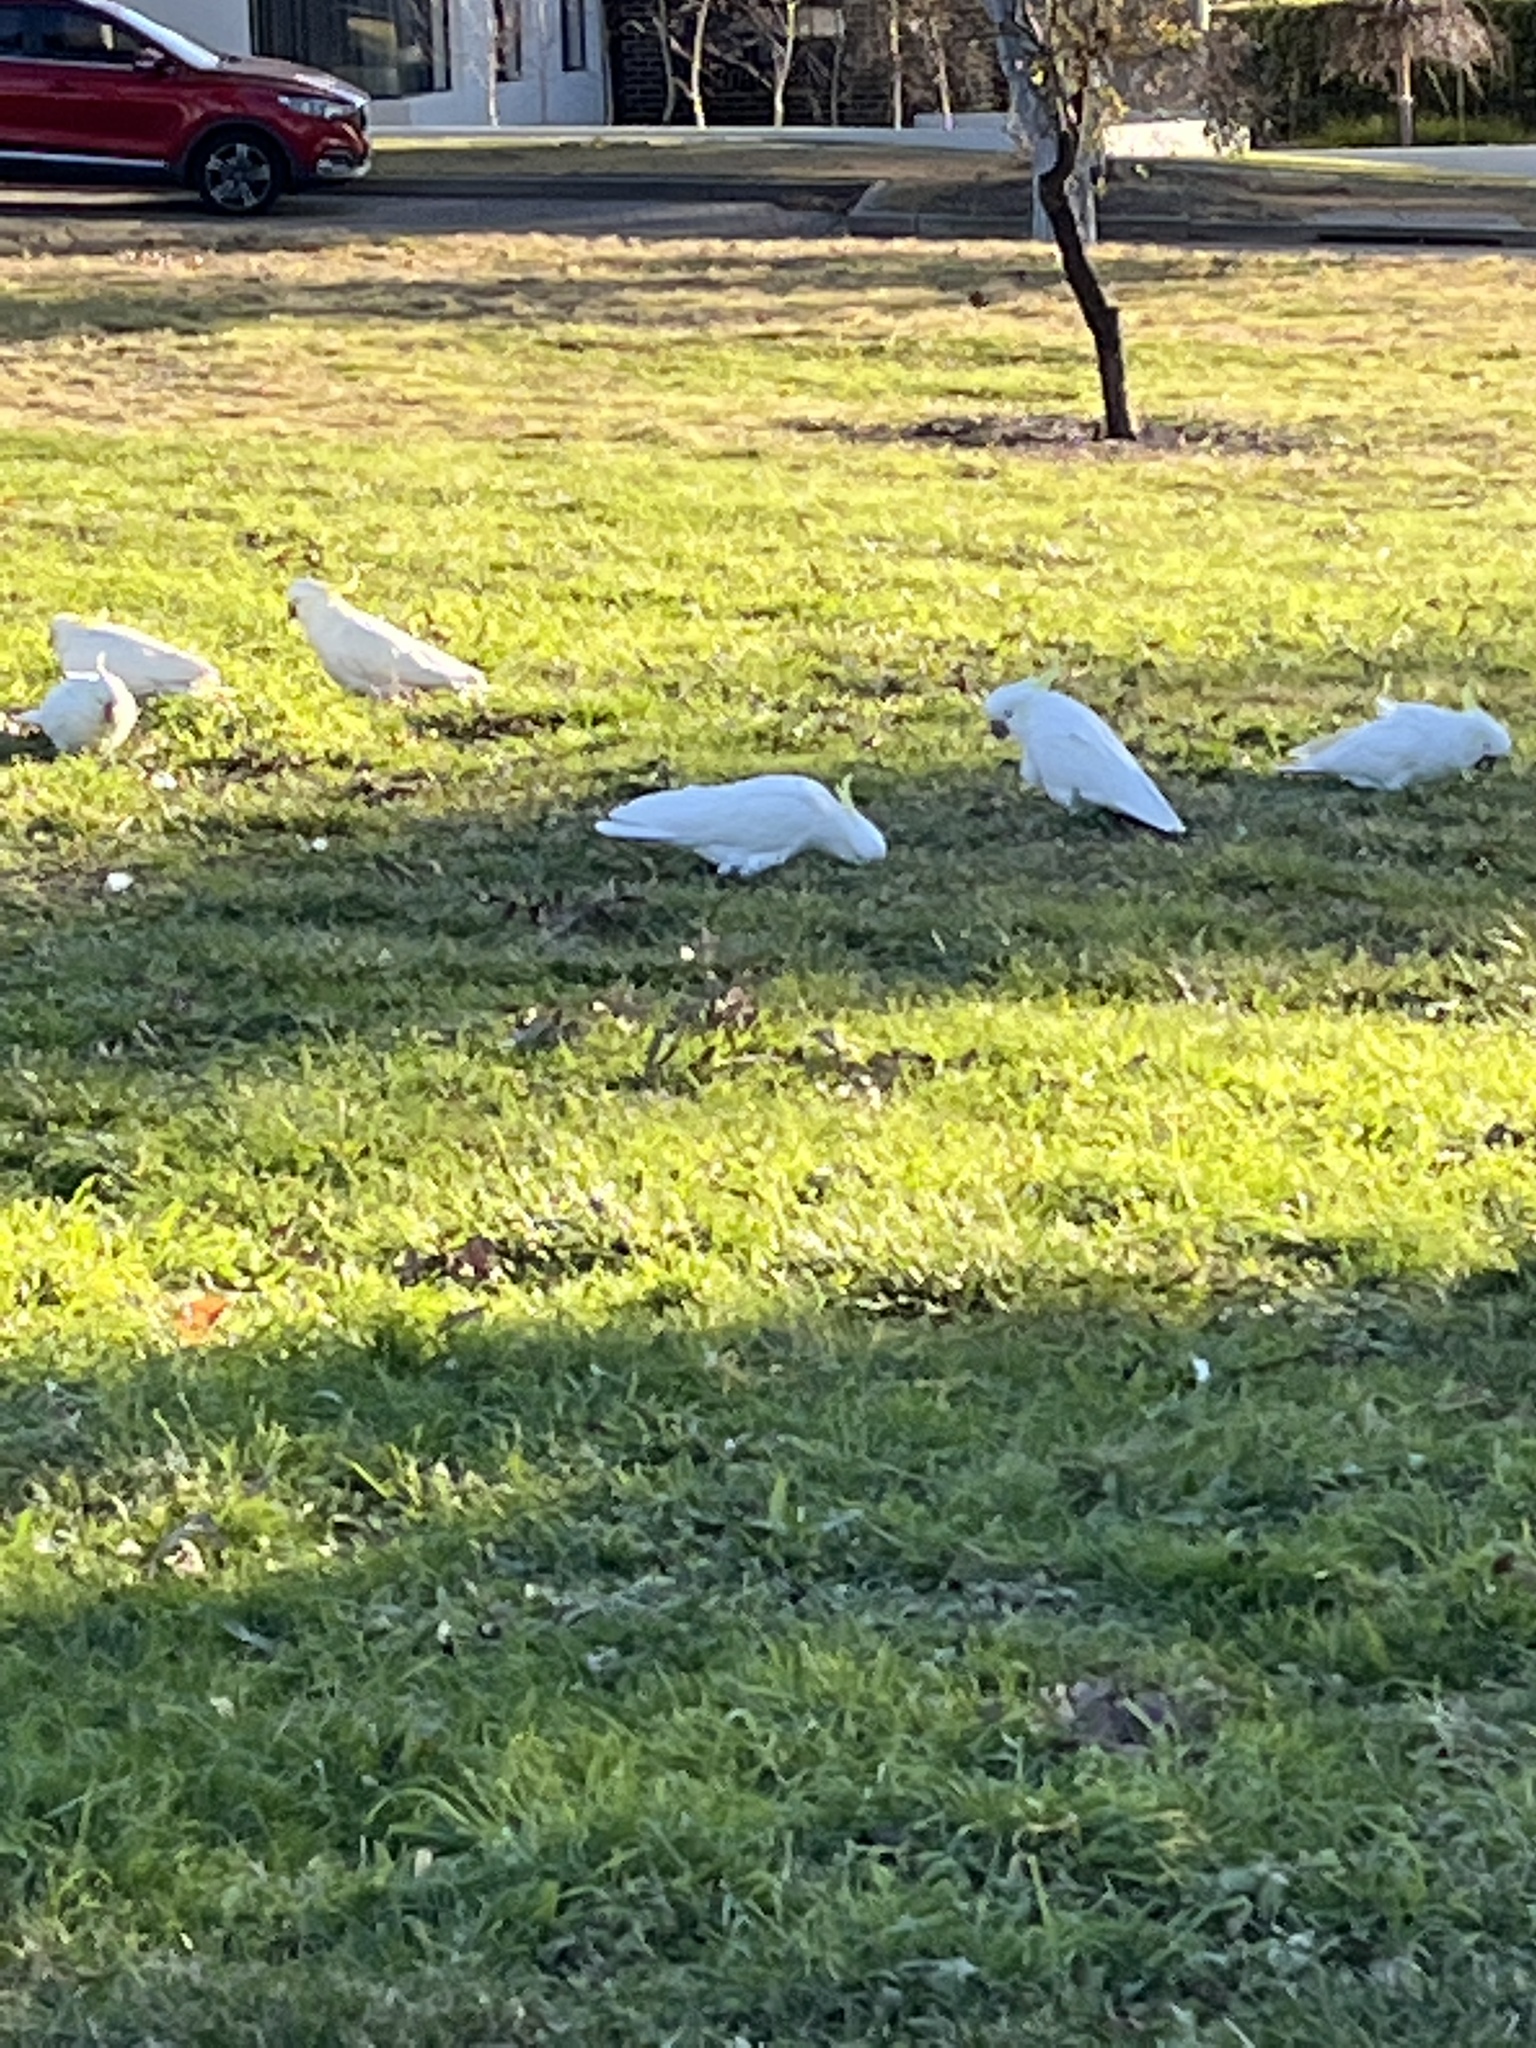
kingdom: Animalia
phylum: Chordata
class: Aves
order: Psittaciformes
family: Psittacidae
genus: Cacatua
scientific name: Cacatua galerita
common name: Sulphur-crested cockatoo
